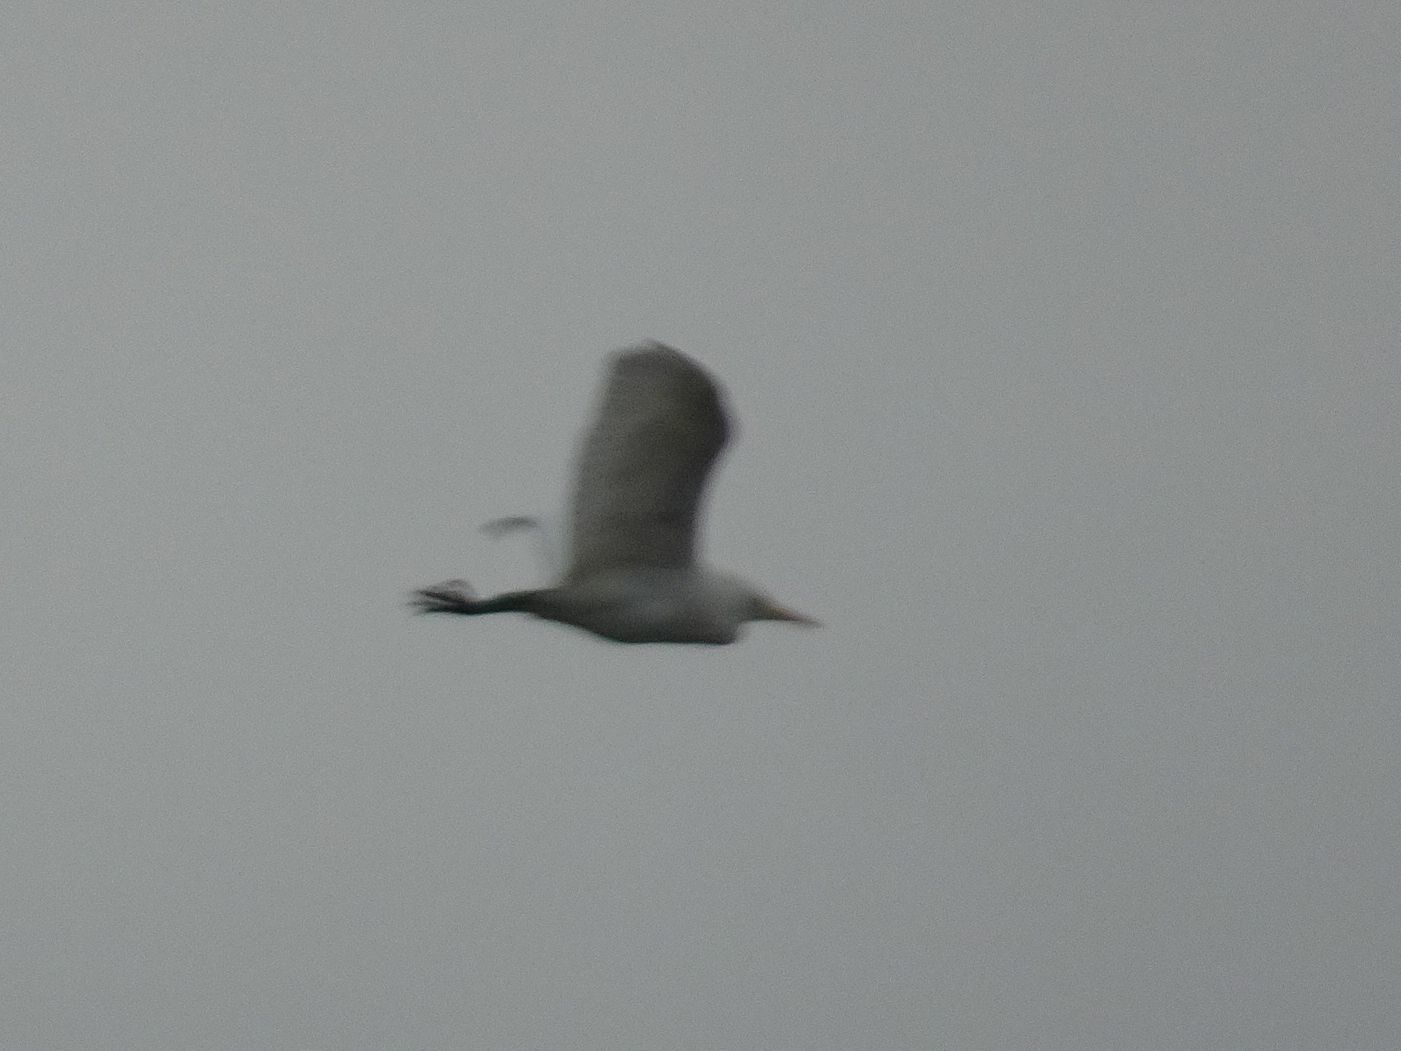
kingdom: Animalia
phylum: Chordata
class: Aves
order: Pelecaniformes
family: Ardeidae
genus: Bubulcus
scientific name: Bubulcus ibis
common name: Cattle egret
